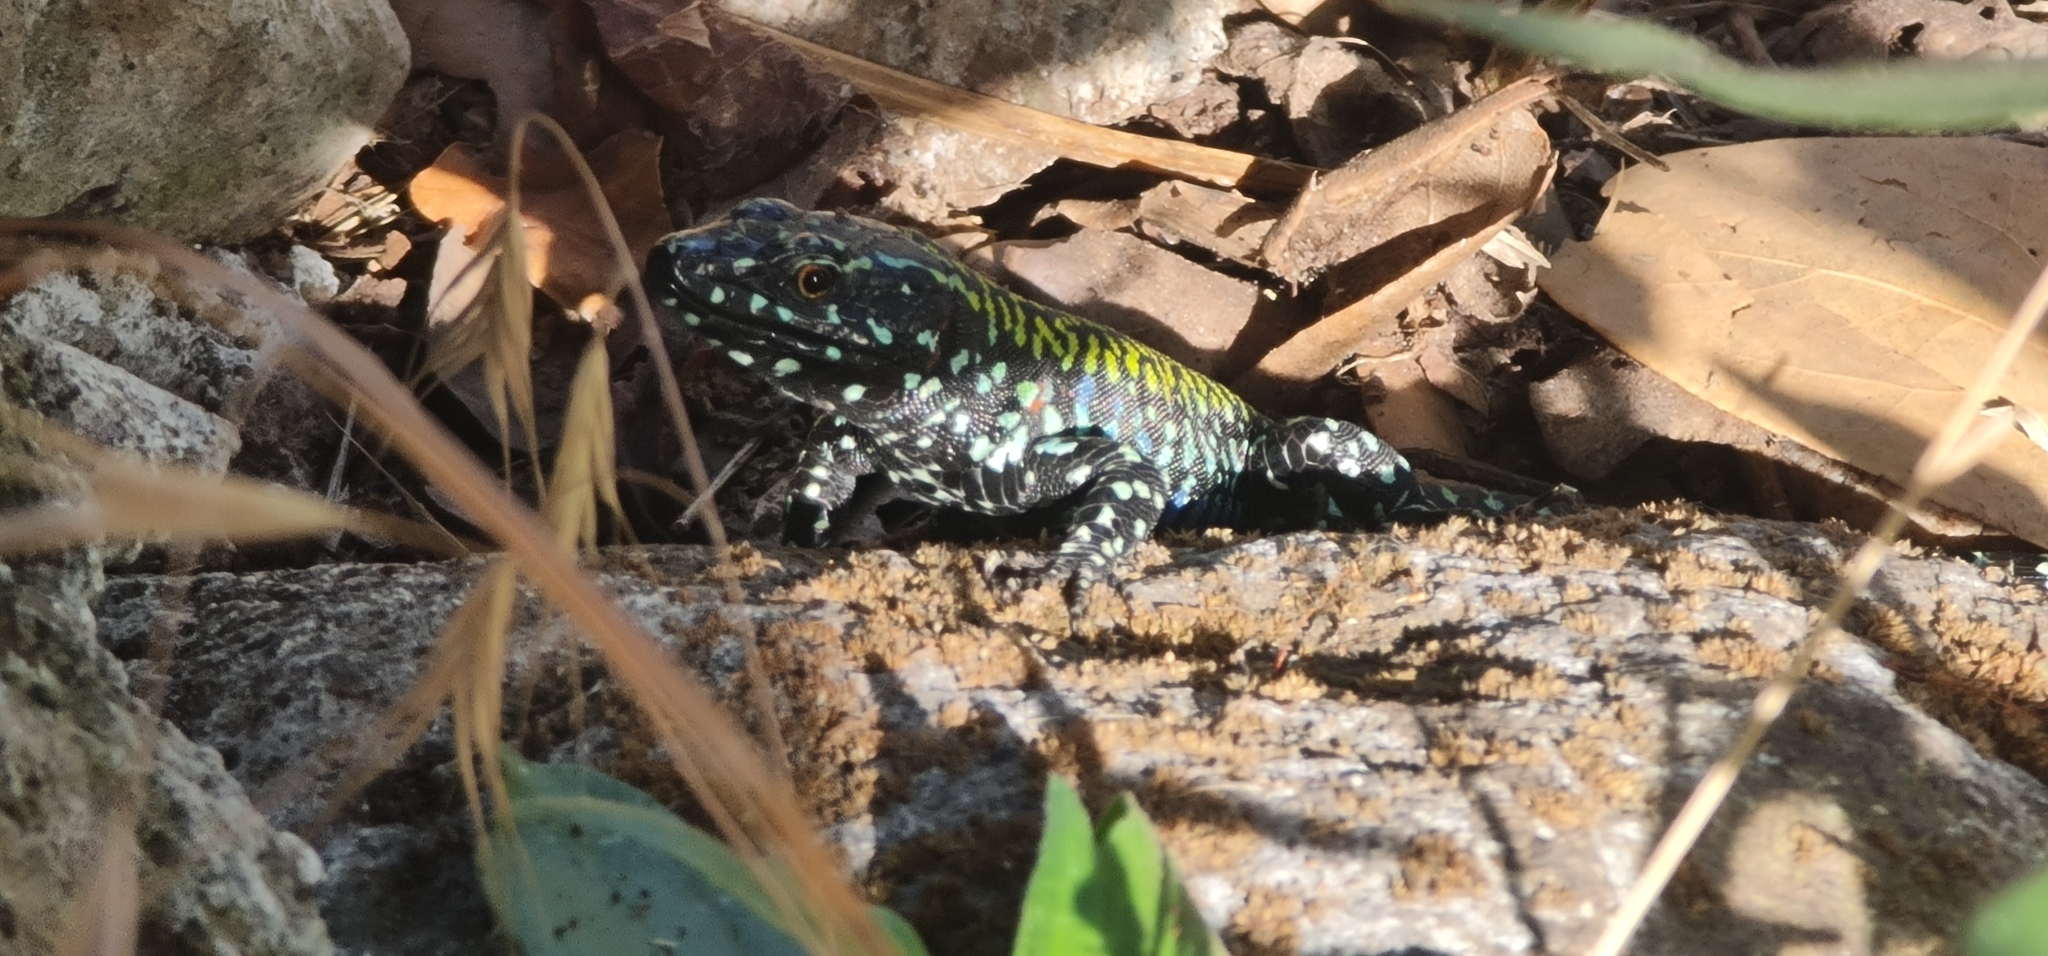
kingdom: Animalia
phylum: Chordata
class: Squamata
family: Lacertidae
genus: Podarcis
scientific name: Podarcis muralis
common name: Common wall lizard
